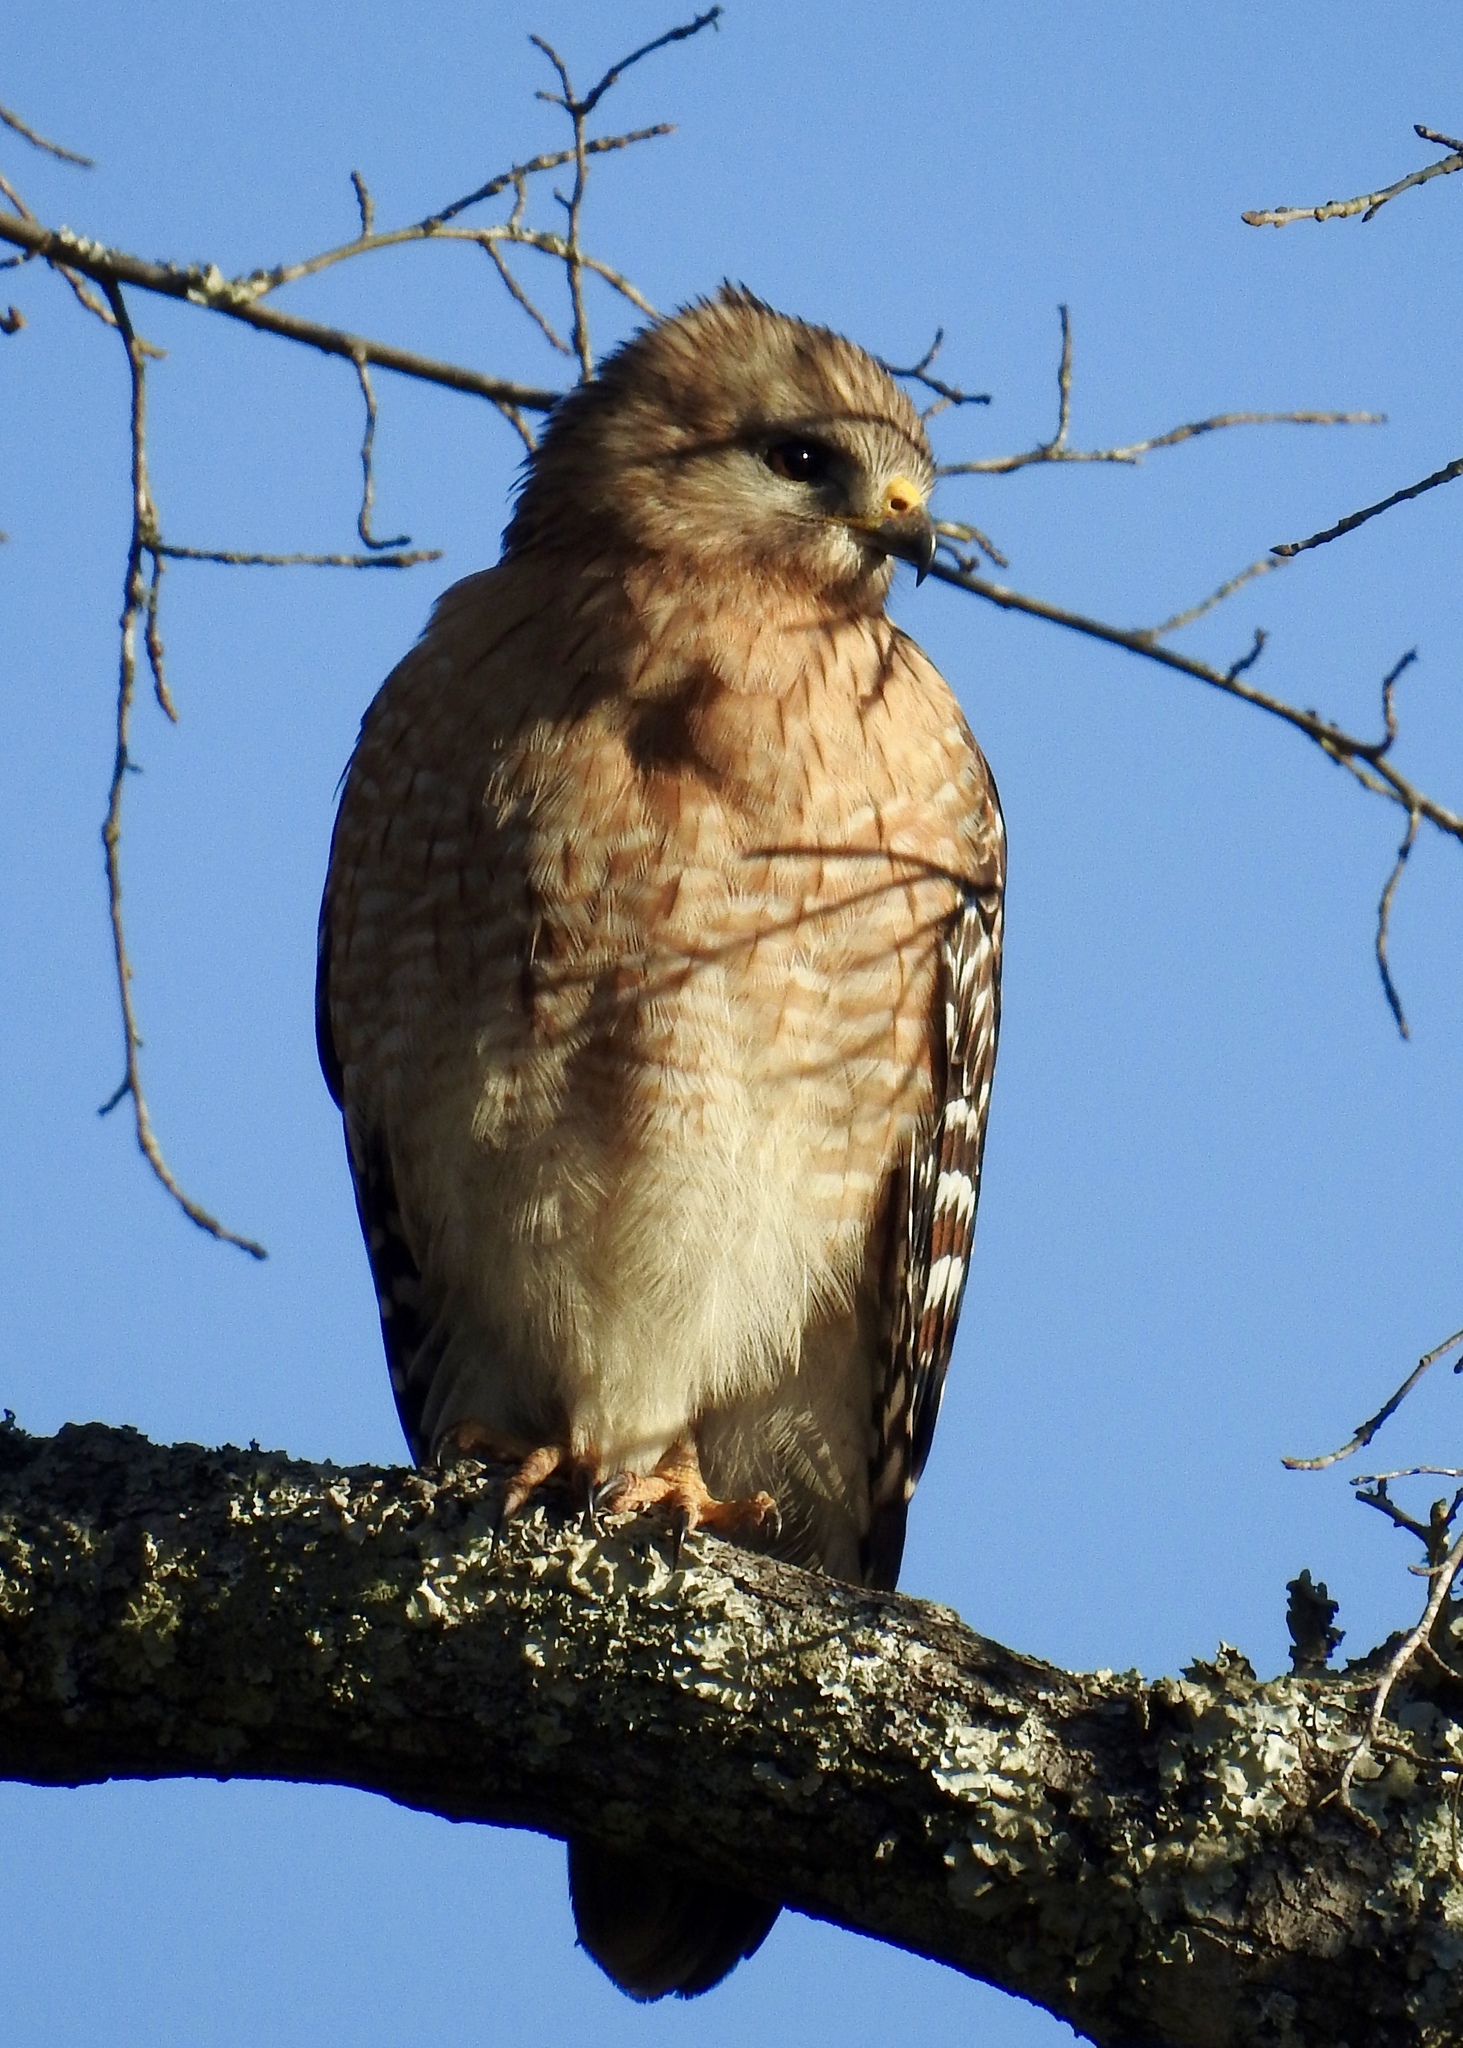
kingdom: Animalia
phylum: Chordata
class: Aves
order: Accipitriformes
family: Accipitridae
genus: Buteo
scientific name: Buteo lineatus
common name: Red-shouldered hawk
